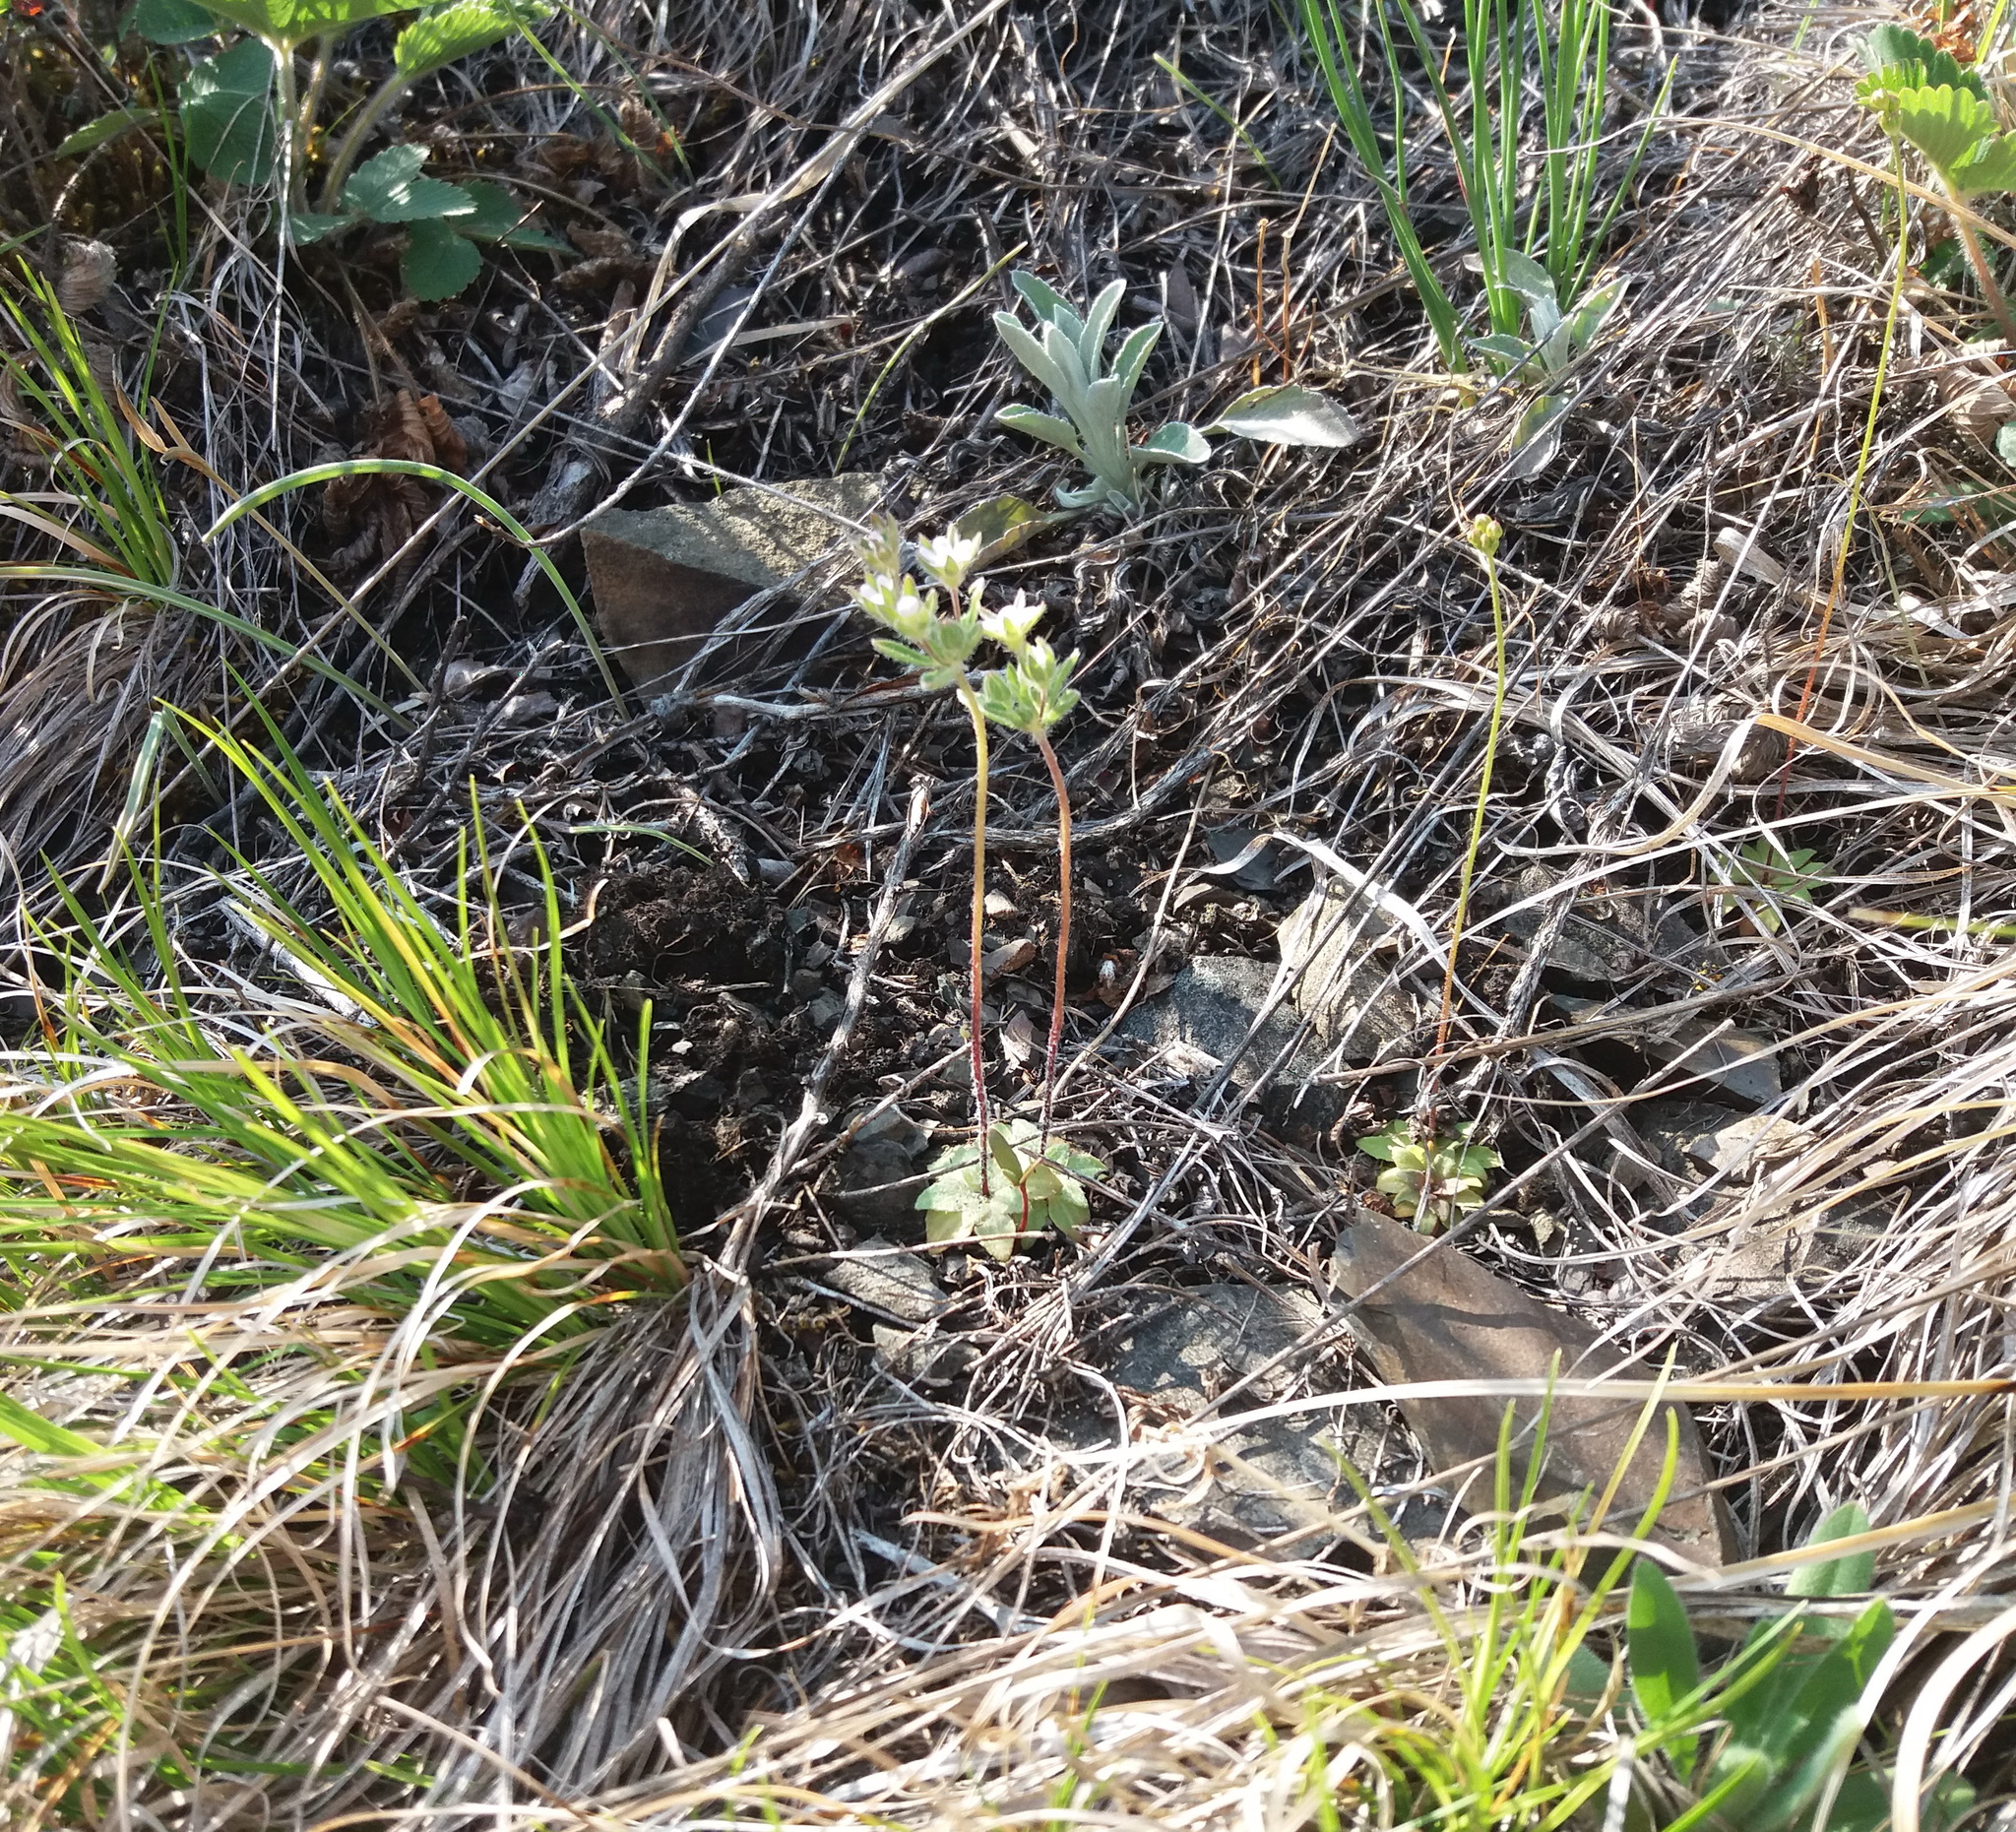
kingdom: Plantae
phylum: Tracheophyta
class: Magnoliopsida
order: Ericales
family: Primulaceae
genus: Androsace
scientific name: Androsace maxima
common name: Annual androsace
